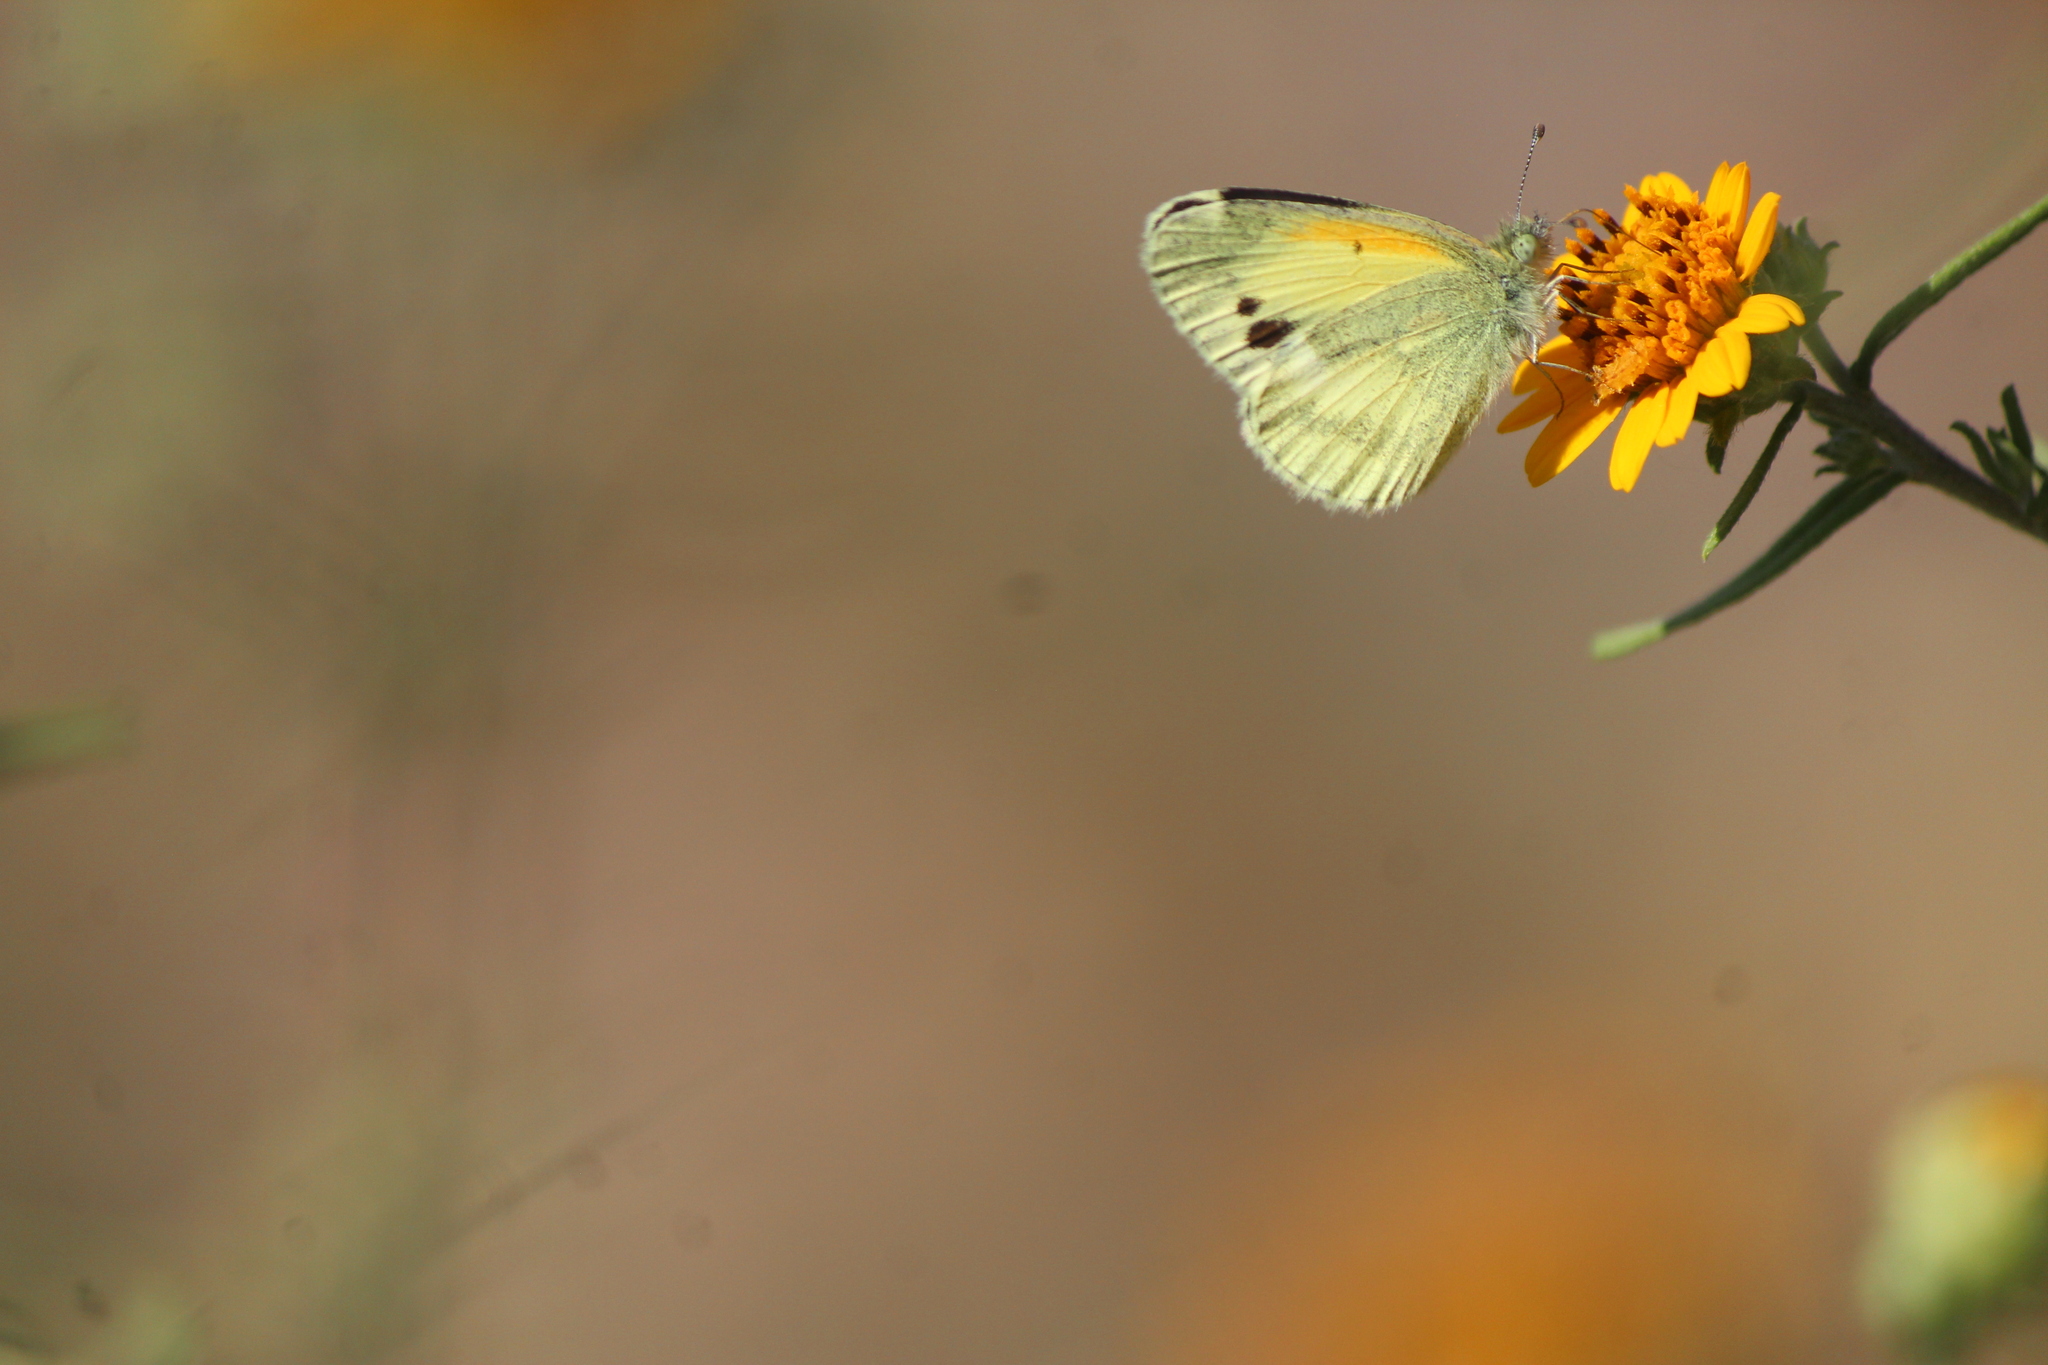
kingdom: Animalia
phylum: Arthropoda
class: Insecta
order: Lepidoptera
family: Pieridae
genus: Nathalis
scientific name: Nathalis iole
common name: Dainty sulphur
